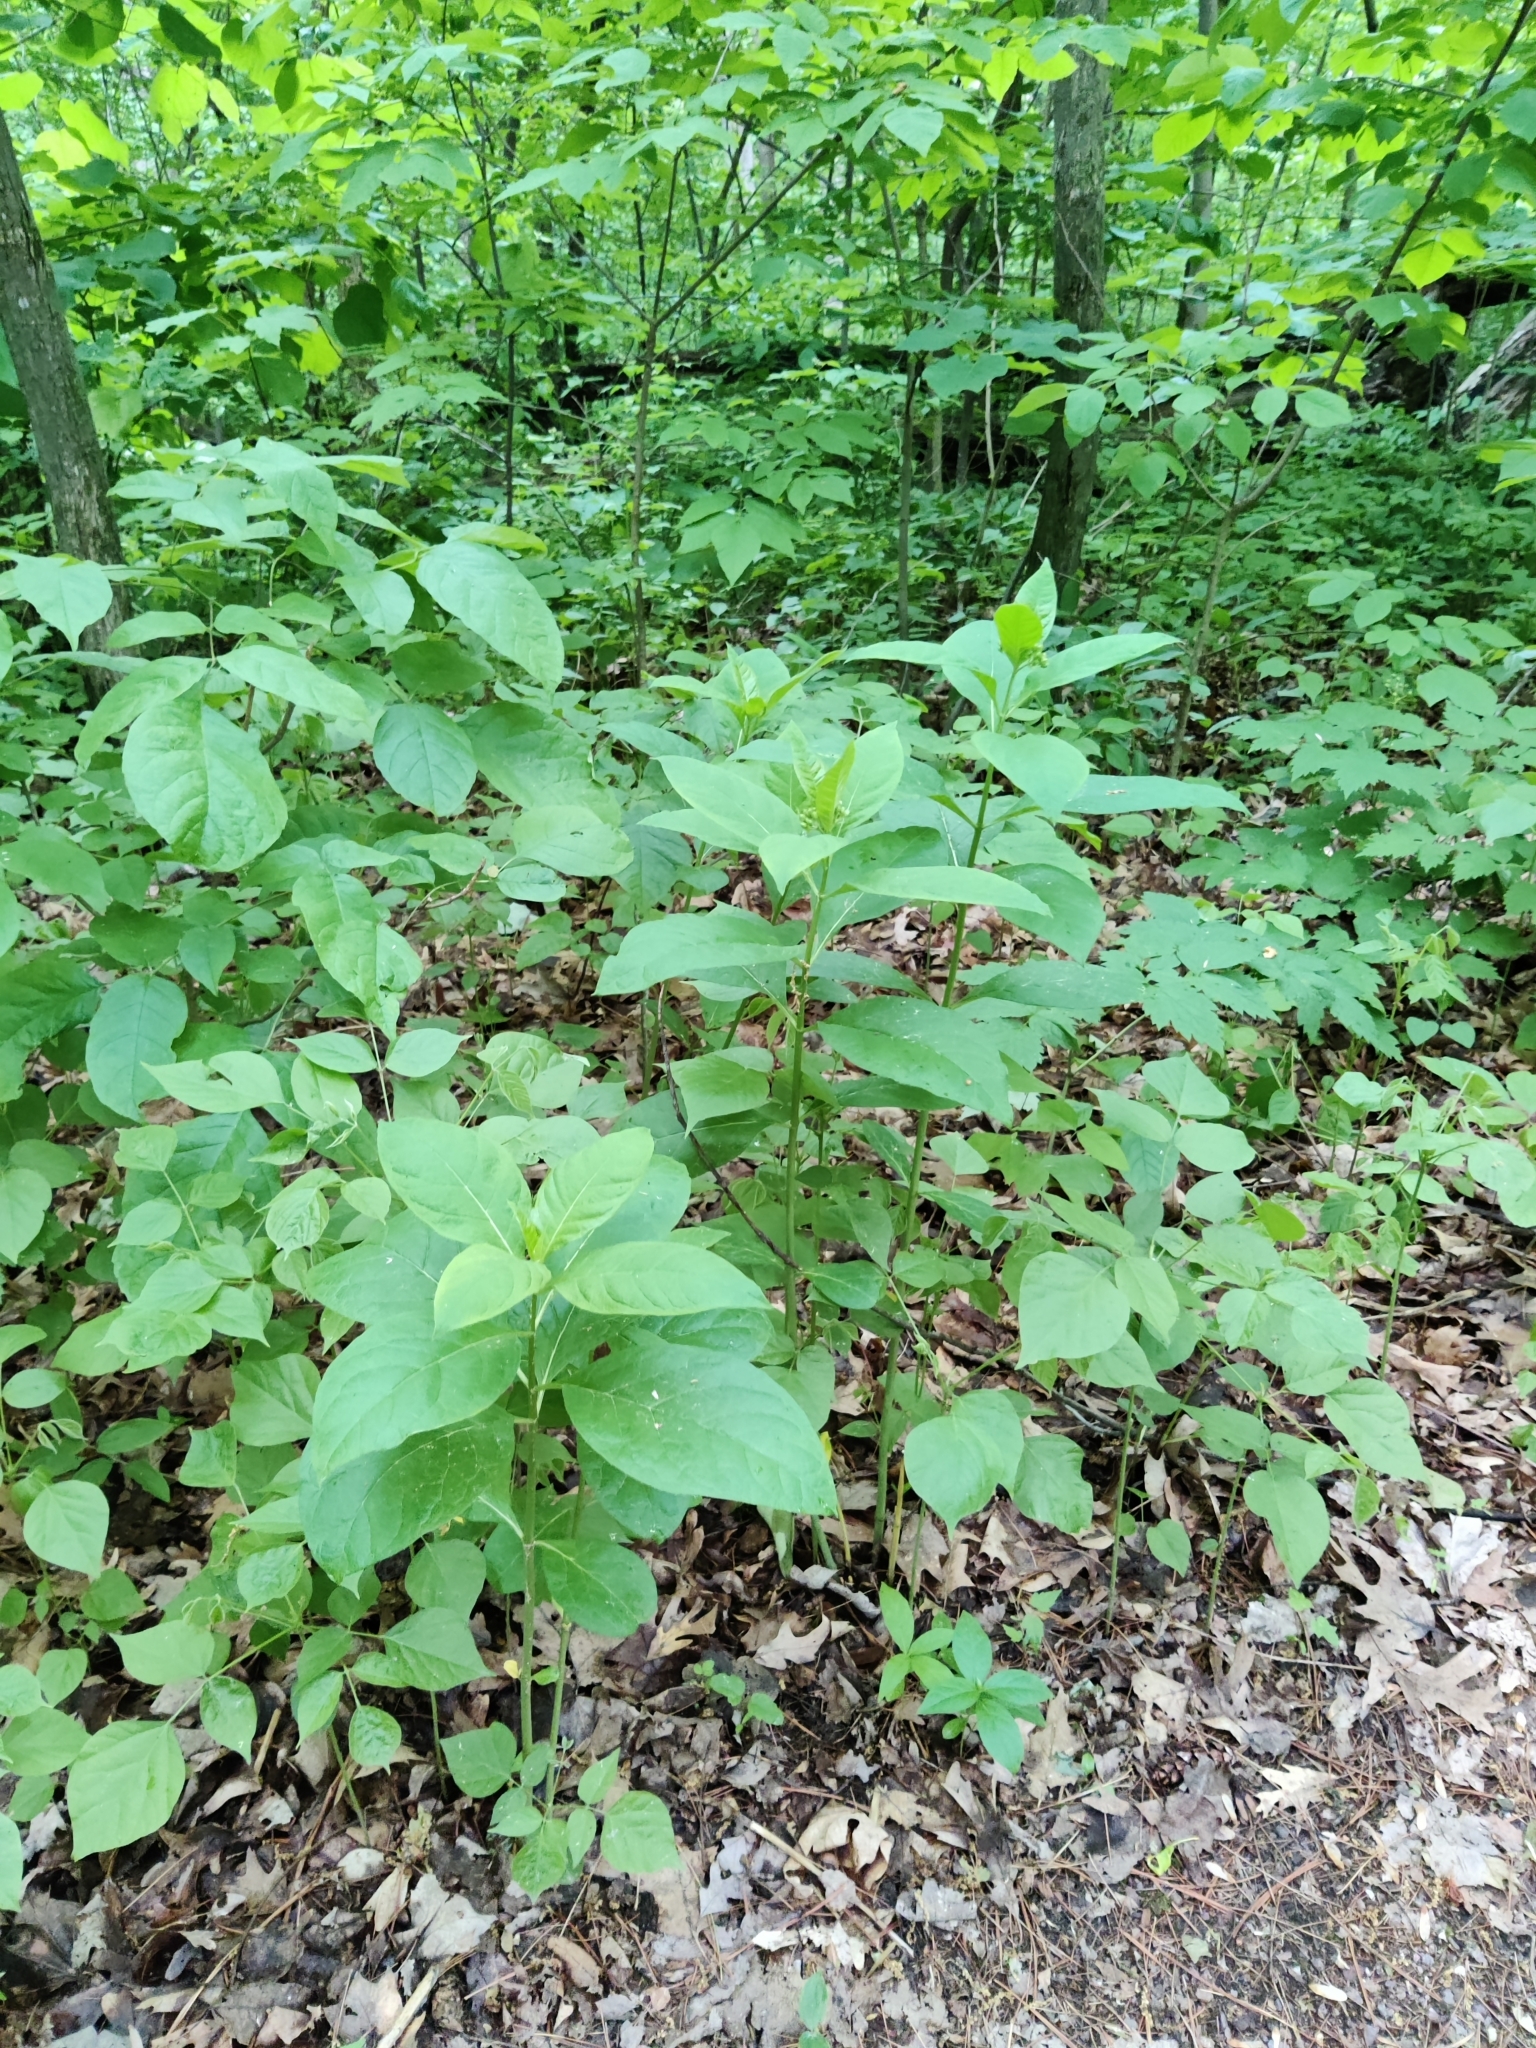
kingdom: Plantae
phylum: Tracheophyta
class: Magnoliopsida
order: Gentianales
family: Apocynaceae
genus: Asclepias
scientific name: Asclepias exaltata
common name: Poke milkweed
